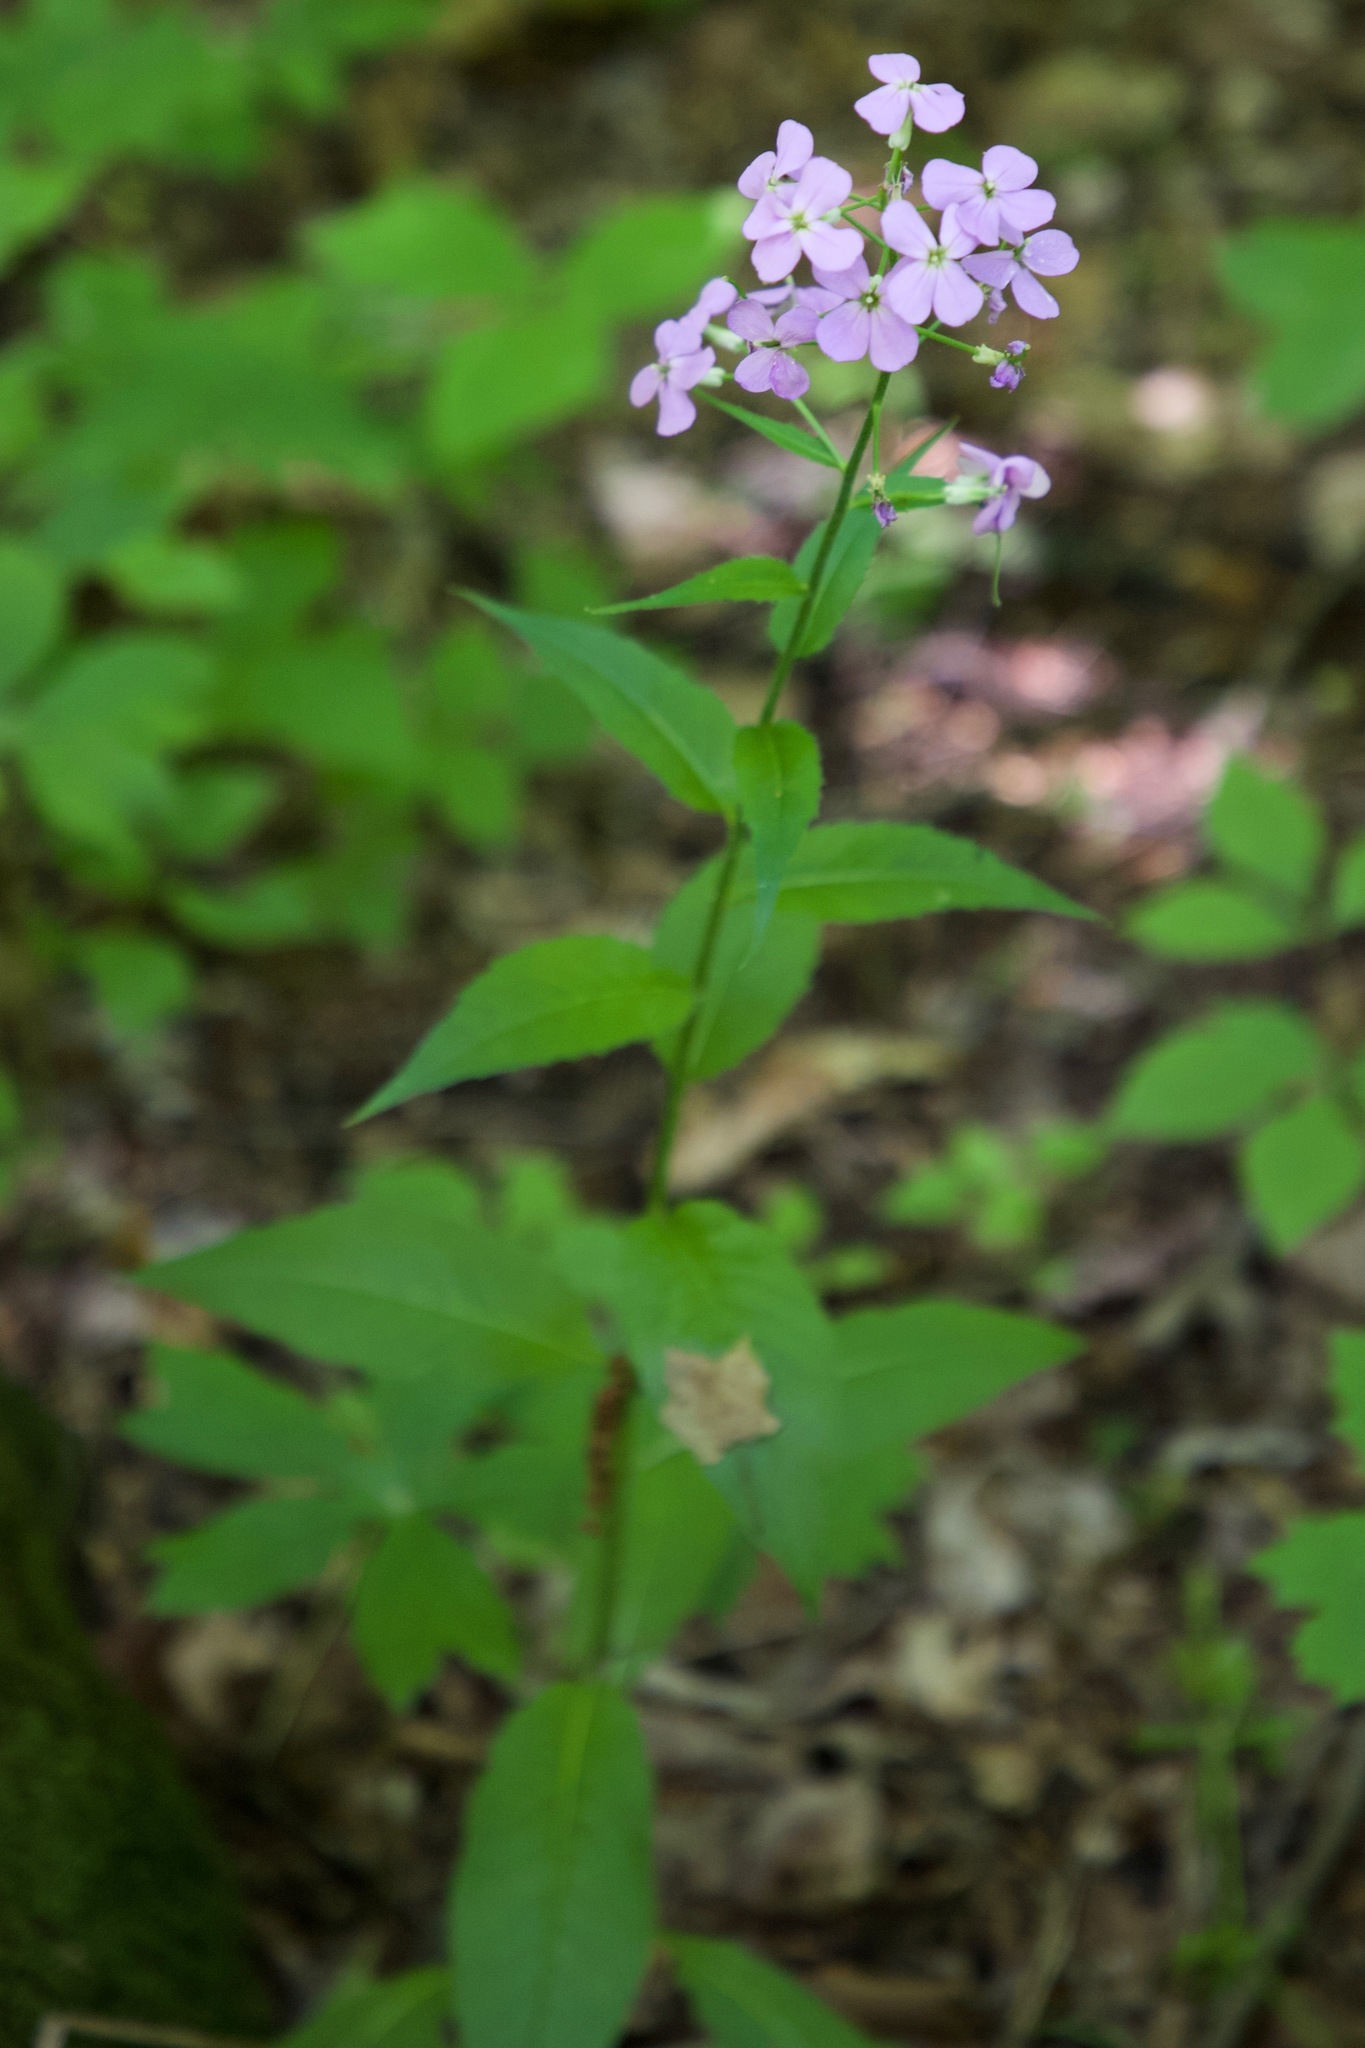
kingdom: Plantae
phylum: Tracheophyta
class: Magnoliopsida
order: Brassicales
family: Brassicaceae
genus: Hesperis
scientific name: Hesperis matronalis
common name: Dame's-violet
